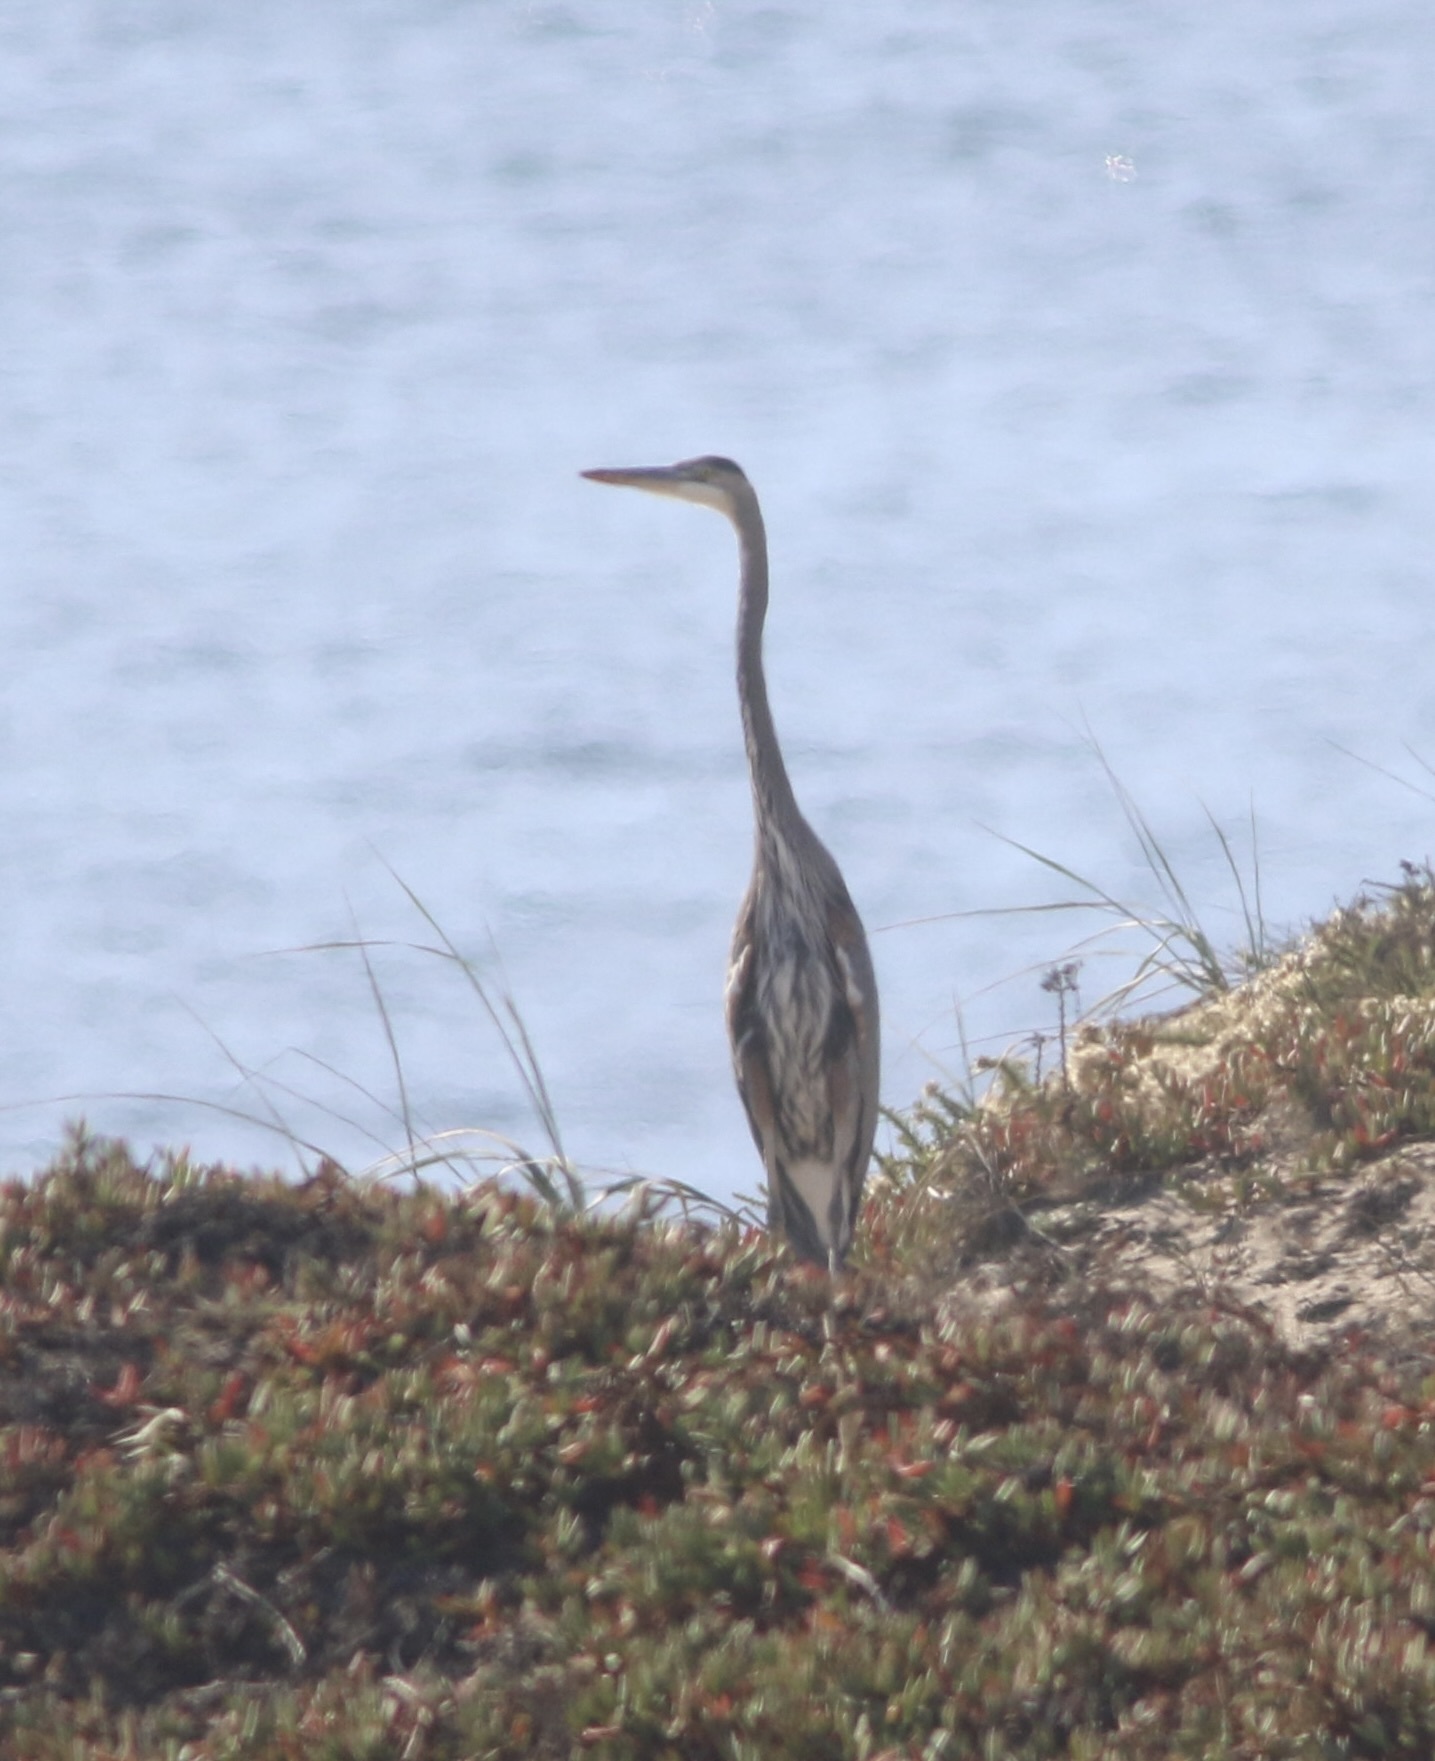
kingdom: Animalia
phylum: Chordata
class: Aves
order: Pelecaniformes
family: Ardeidae
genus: Ardea
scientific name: Ardea herodias
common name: Great blue heron
